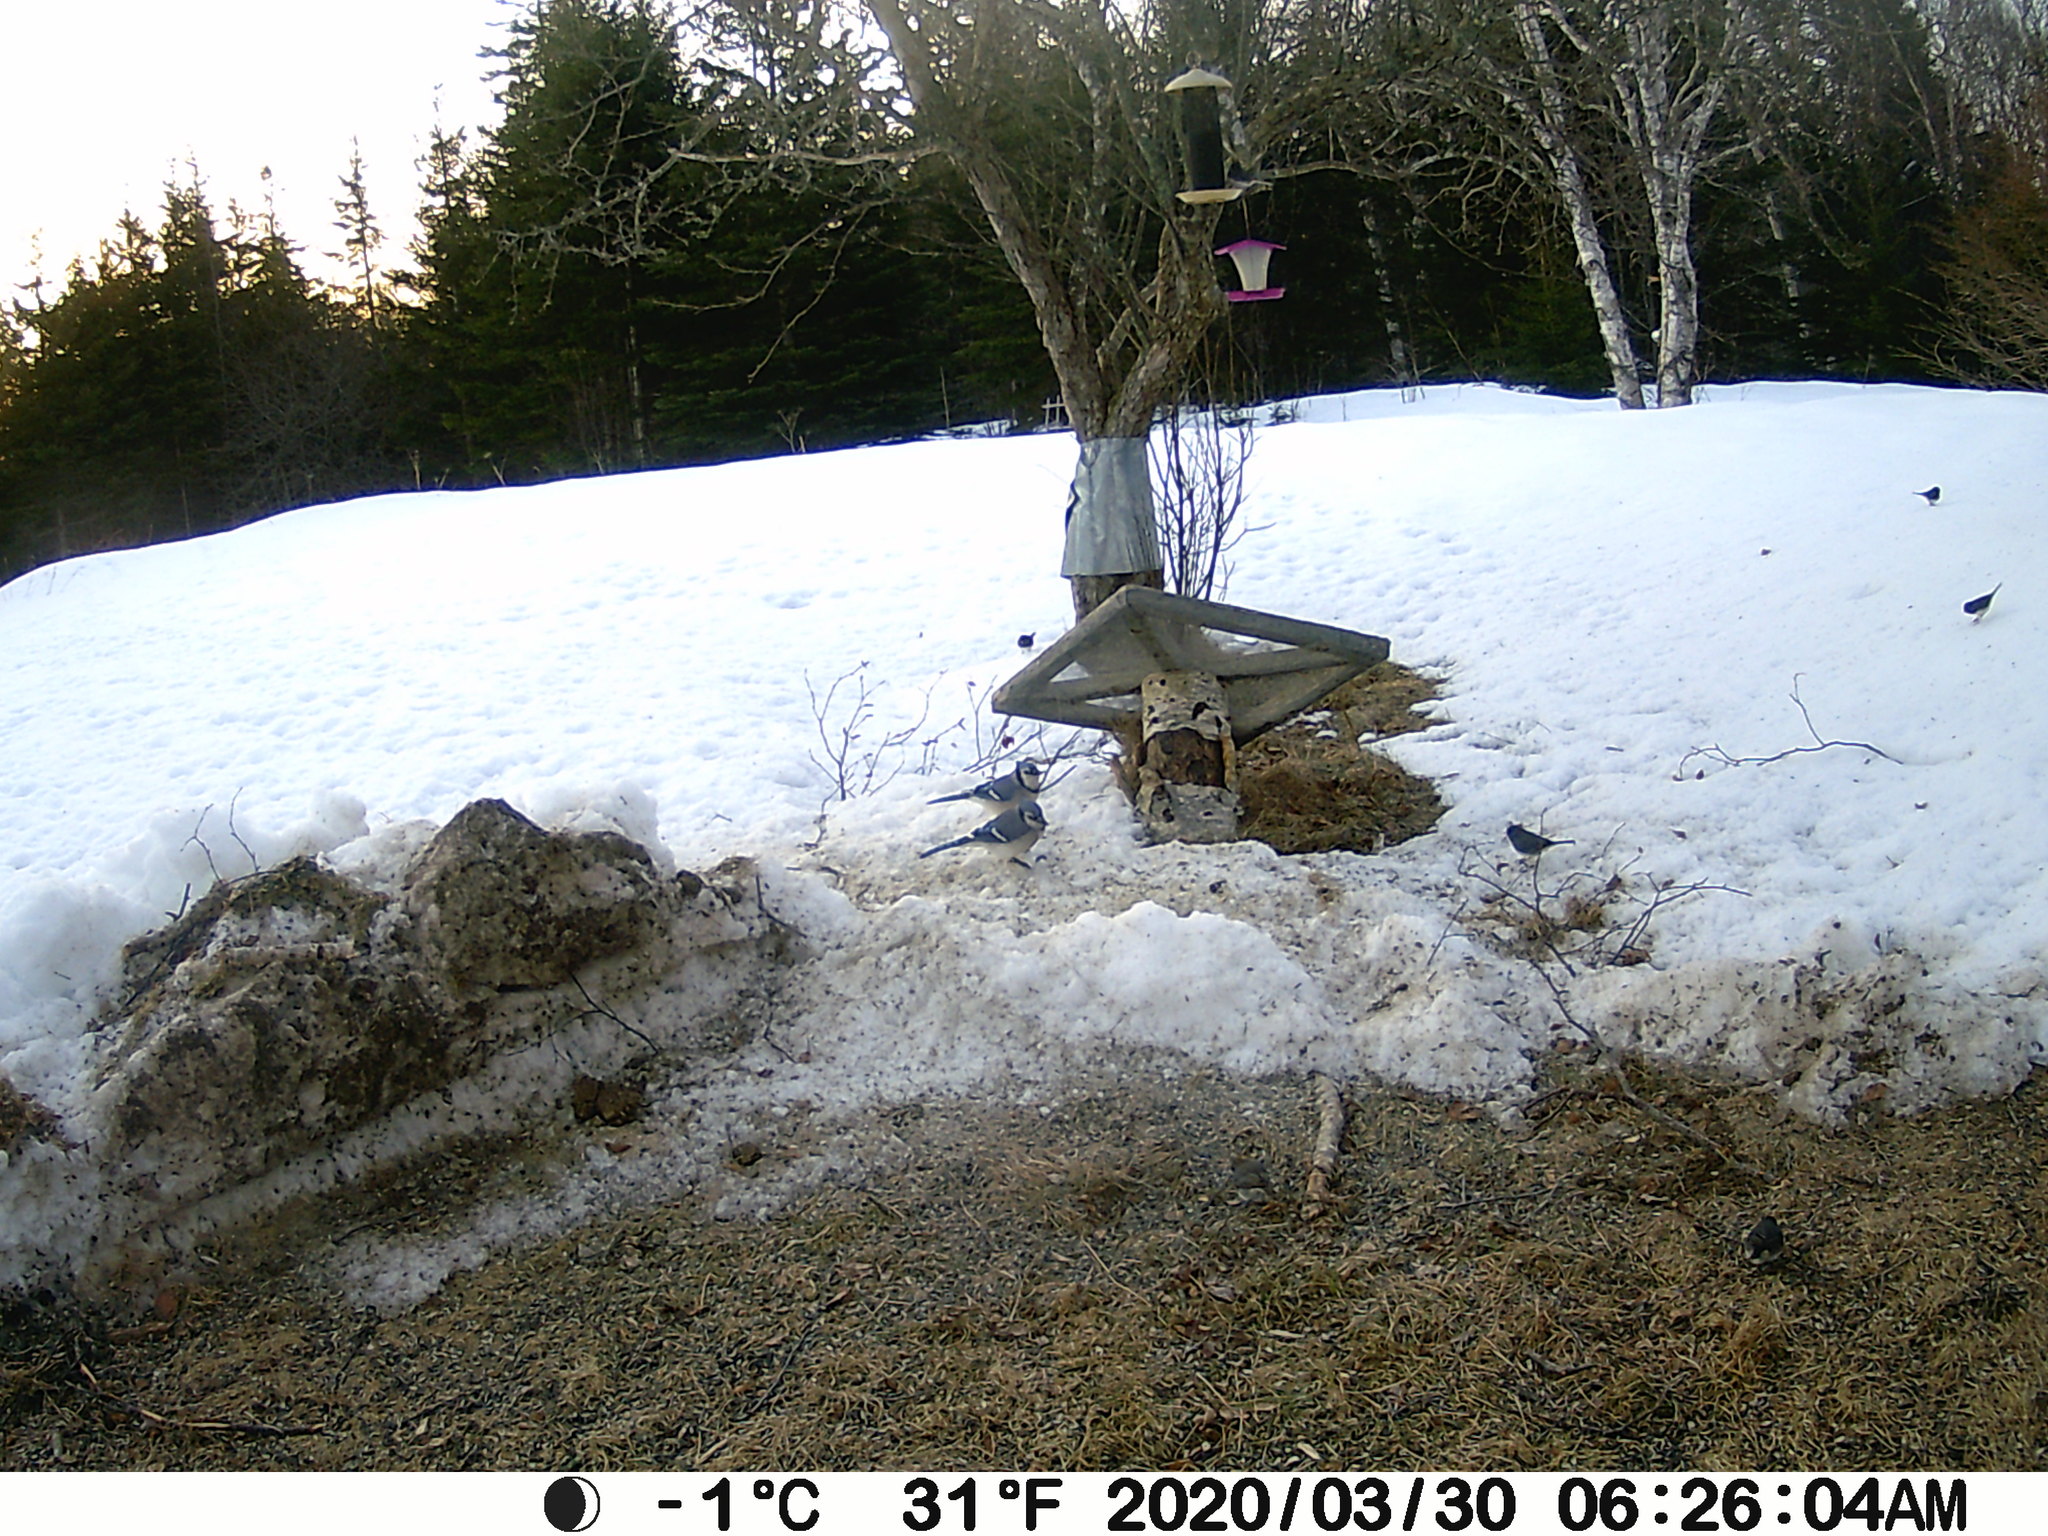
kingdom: Animalia
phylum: Chordata
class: Aves
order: Passeriformes
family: Corvidae
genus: Cyanocitta
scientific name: Cyanocitta cristata
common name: Blue jay
